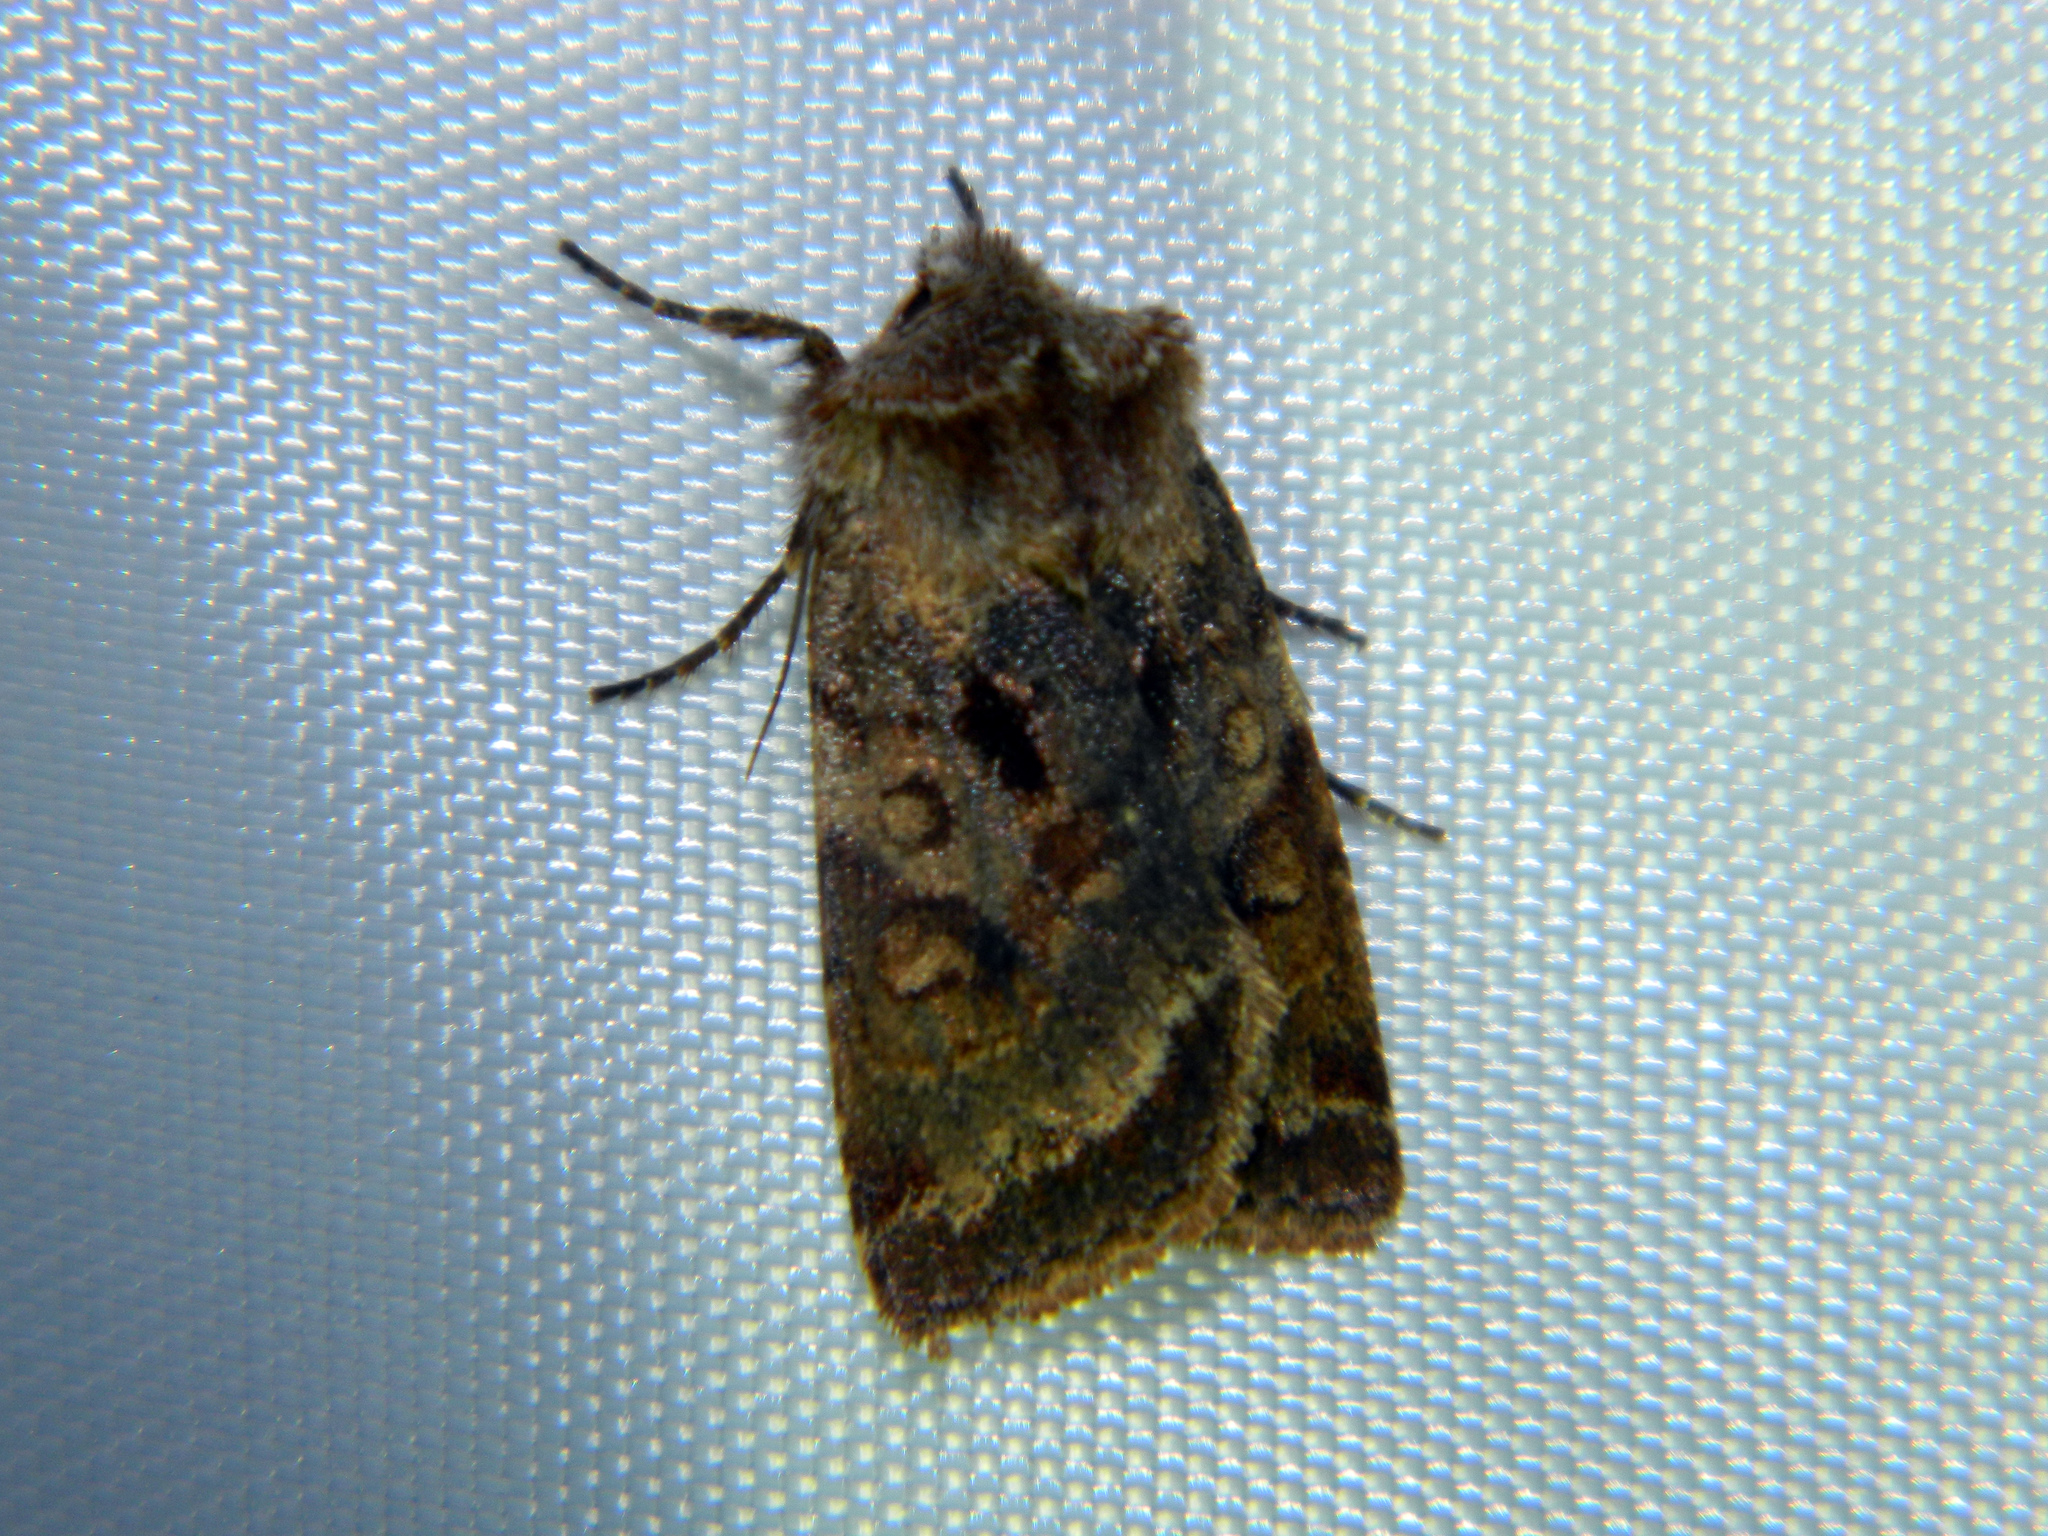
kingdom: Animalia
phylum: Arthropoda
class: Insecta
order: Lepidoptera
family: Noctuidae
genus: Cerastis
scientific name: Cerastis salicarum
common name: Willow dart
